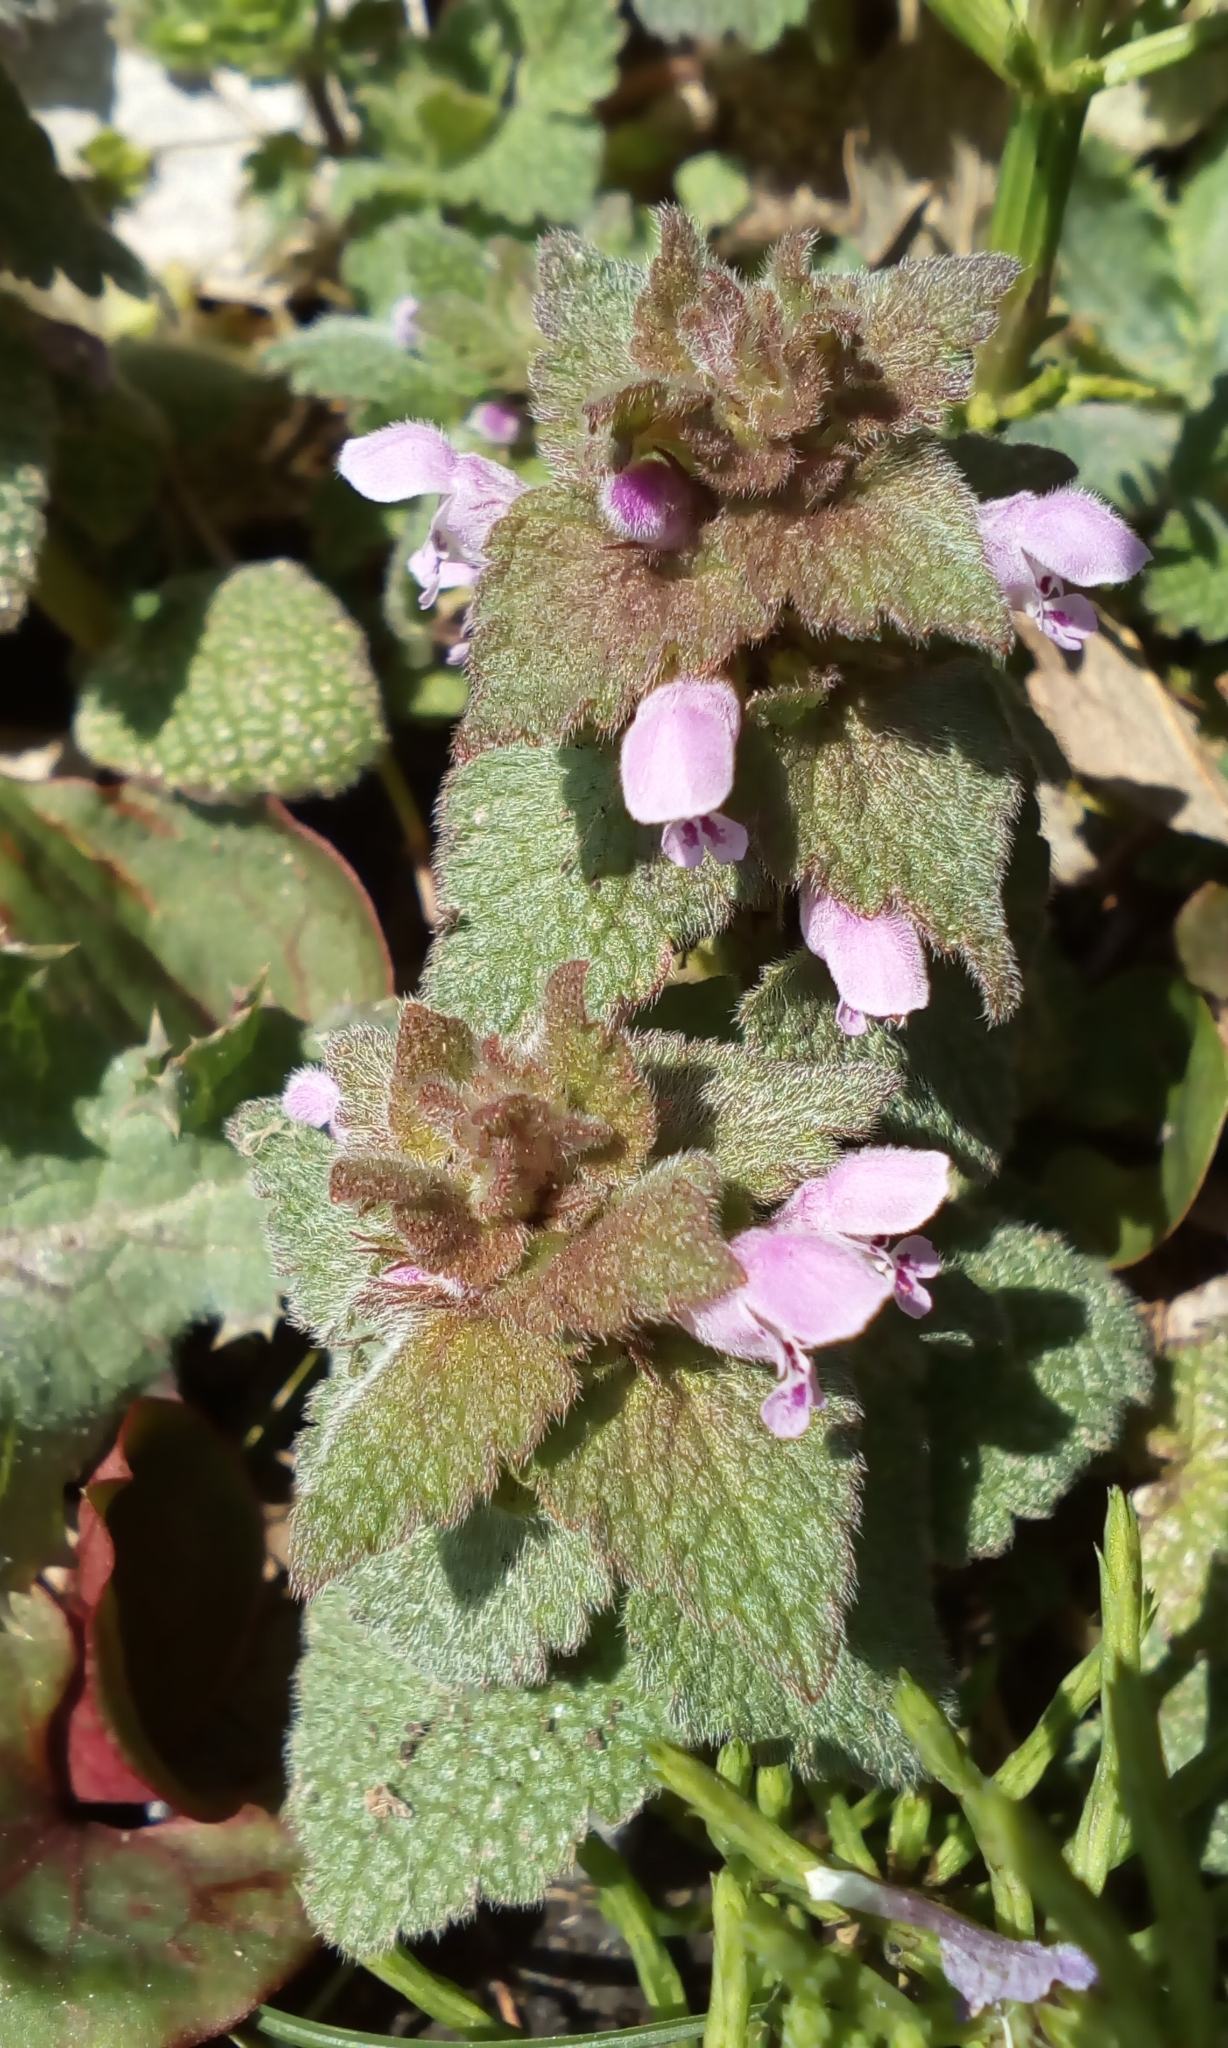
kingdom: Plantae
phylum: Tracheophyta
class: Magnoliopsida
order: Lamiales
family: Lamiaceae
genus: Lamium
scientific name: Lamium purpureum
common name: Red dead-nettle
